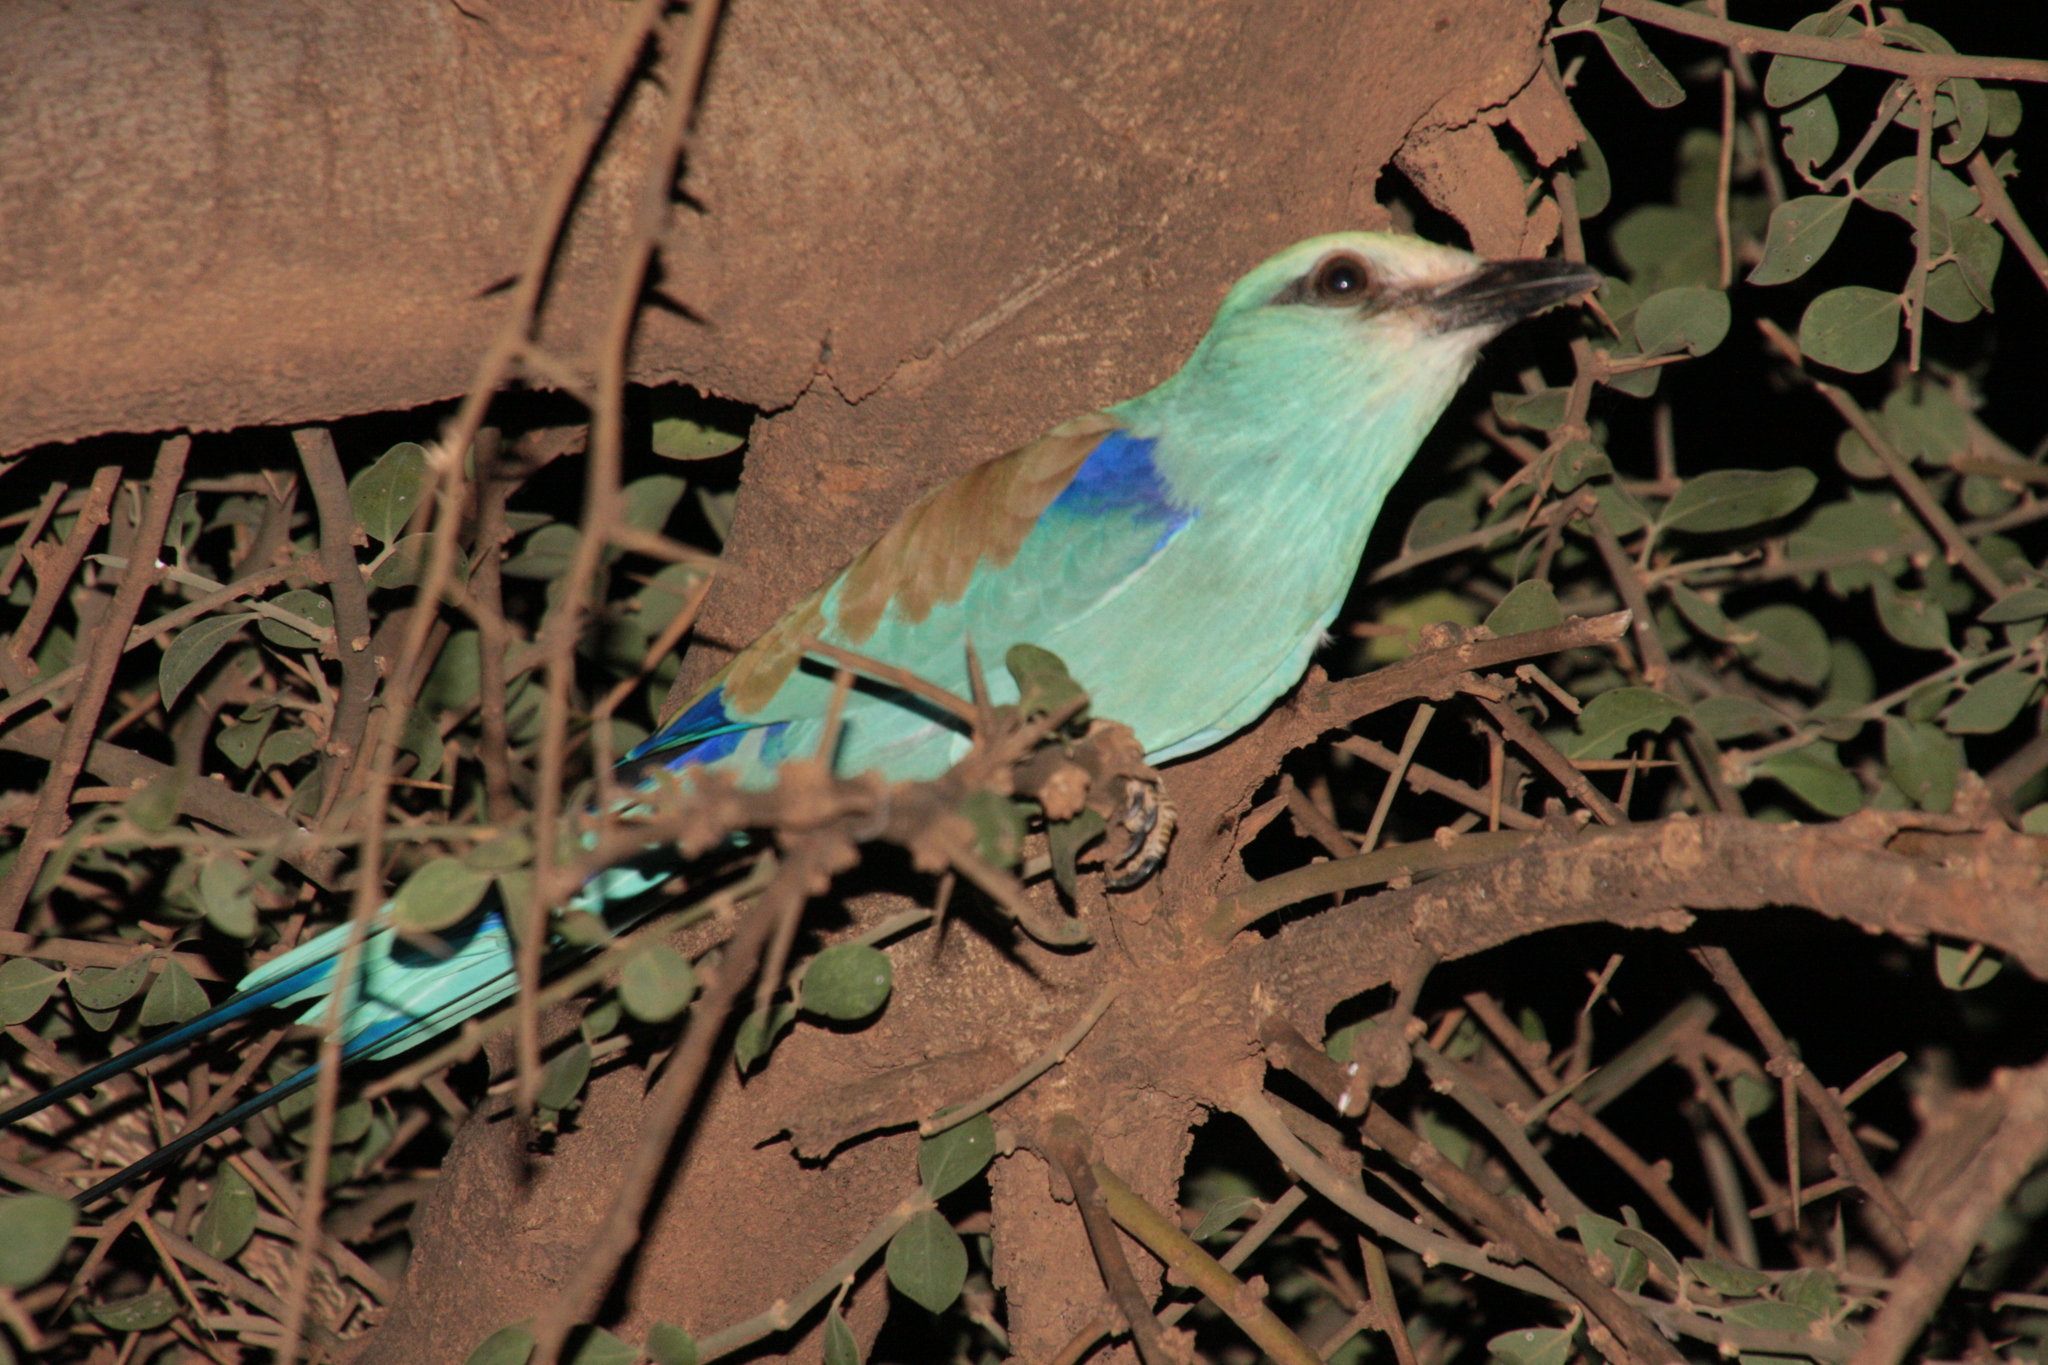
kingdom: Animalia
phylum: Chordata
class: Aves
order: Coraciiformes
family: Coraciidae
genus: Coracias
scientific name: Coracias abyssinicus
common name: Abyssinian roller
